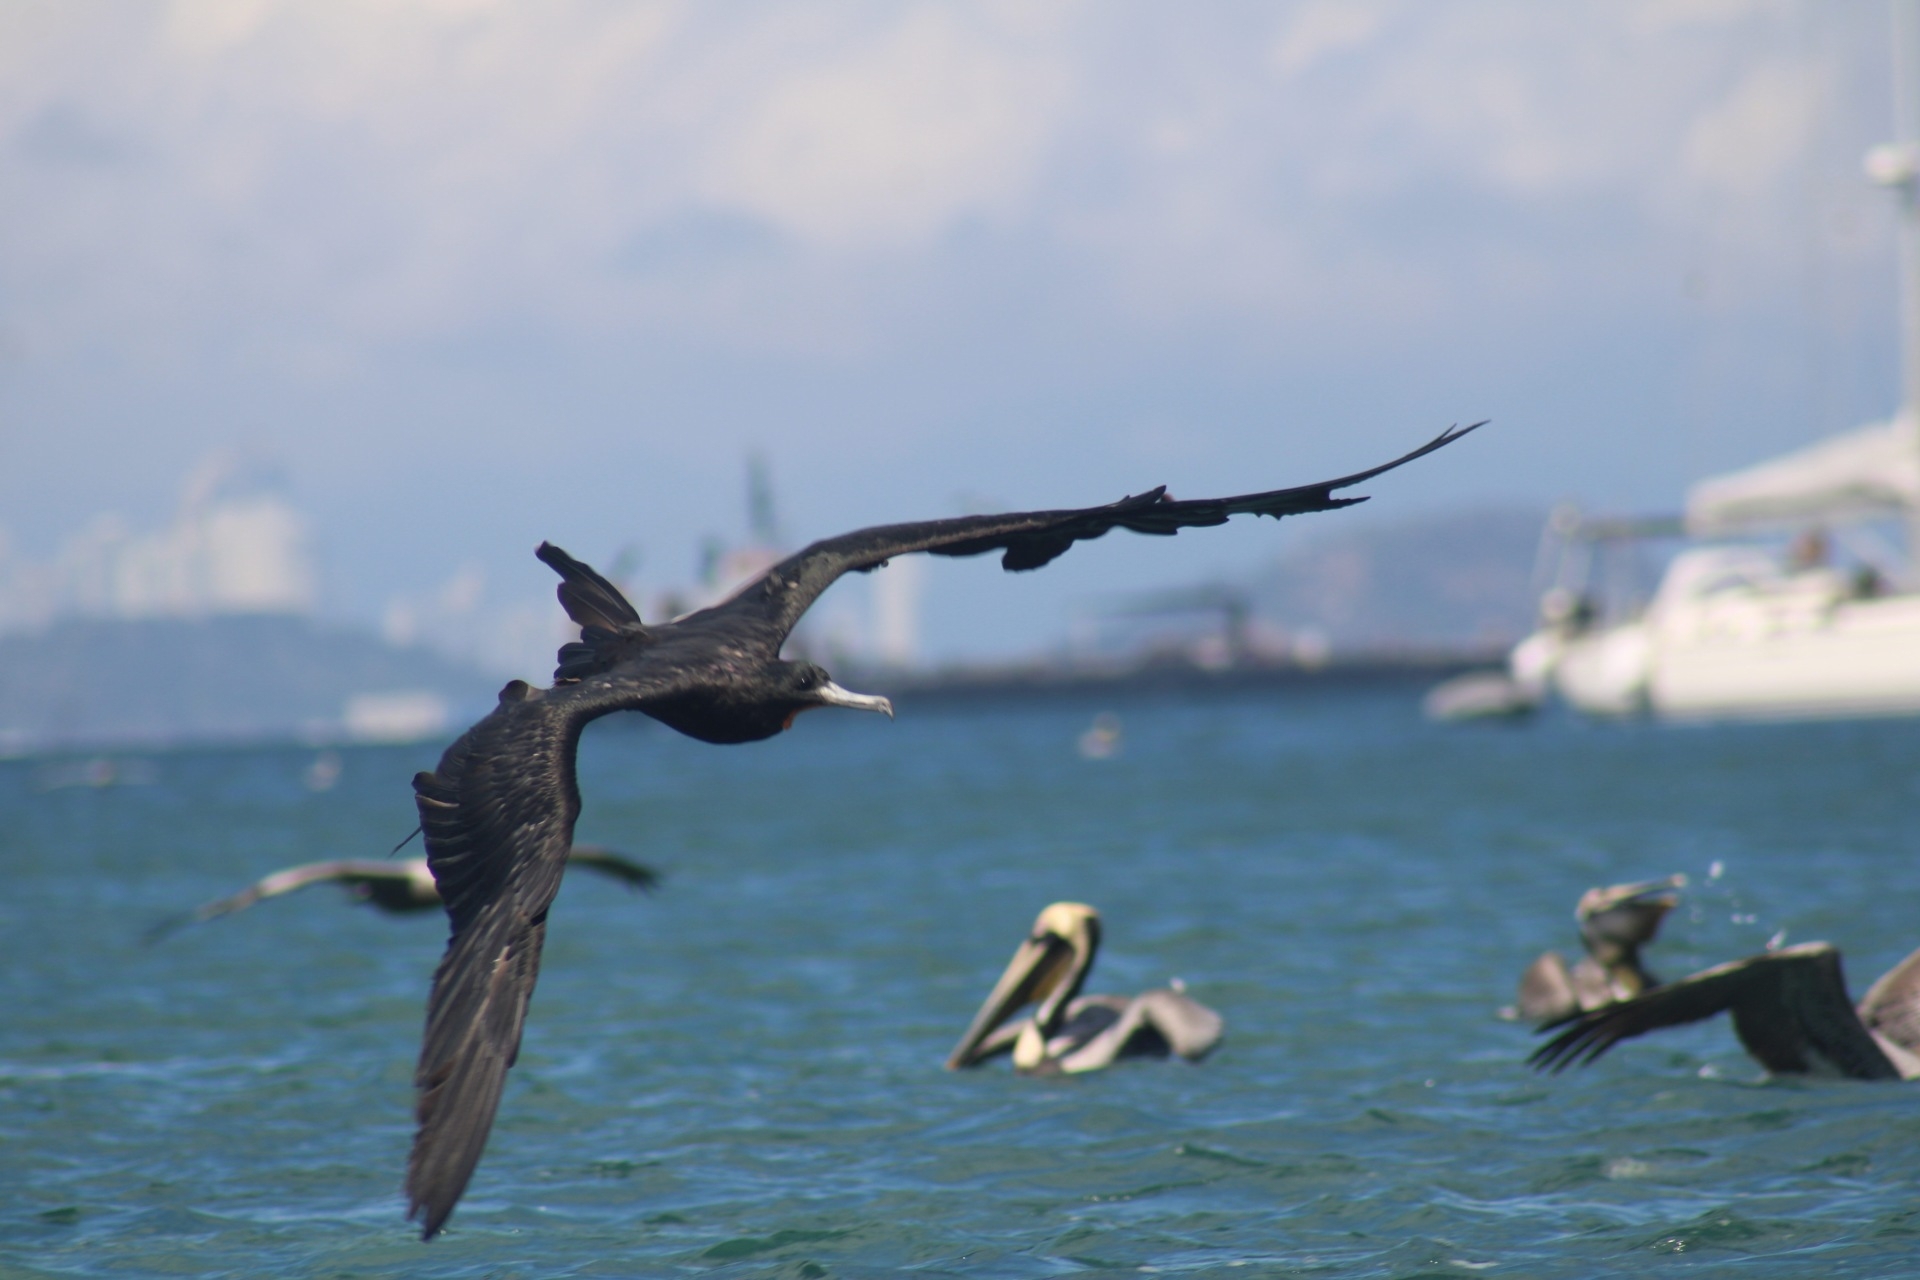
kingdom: Animalia
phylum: Chordata
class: Aves
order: Suliformes
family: Fregatidae
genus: Fregata
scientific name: Fregata magnificens
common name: Magnificent frigatebird
